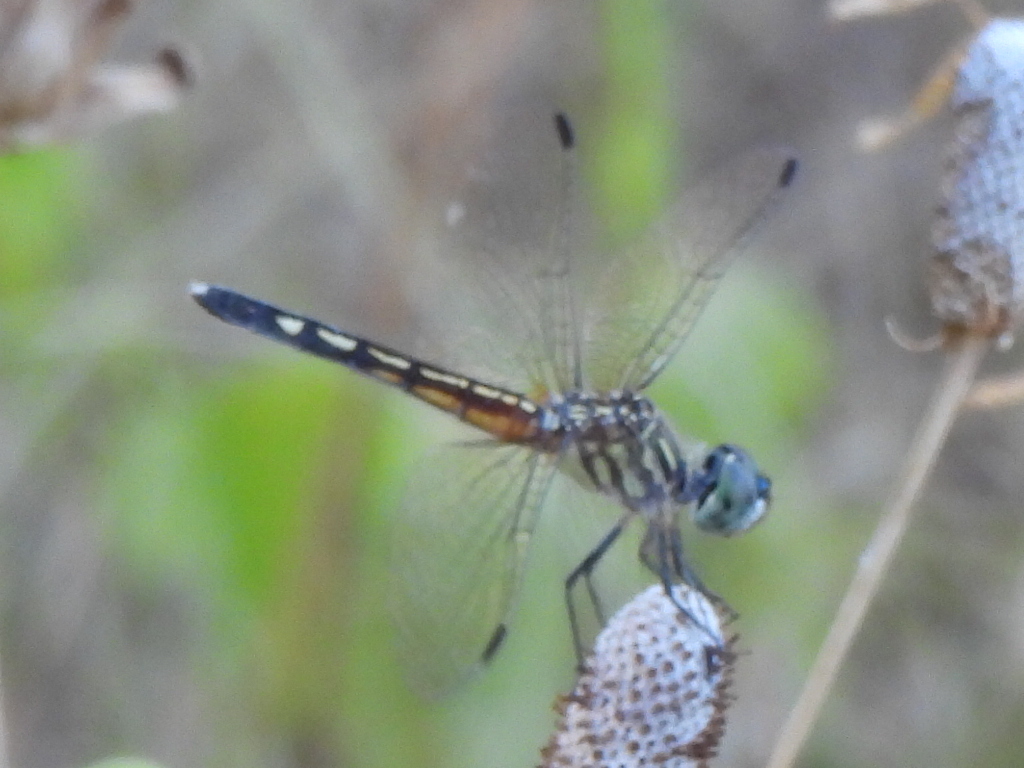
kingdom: Animalia
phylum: Arthropoda
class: Insecta
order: Odonata
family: Libellulidae
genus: Pachydiplax
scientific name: Pachydiplax longipennis
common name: Blue dasher
